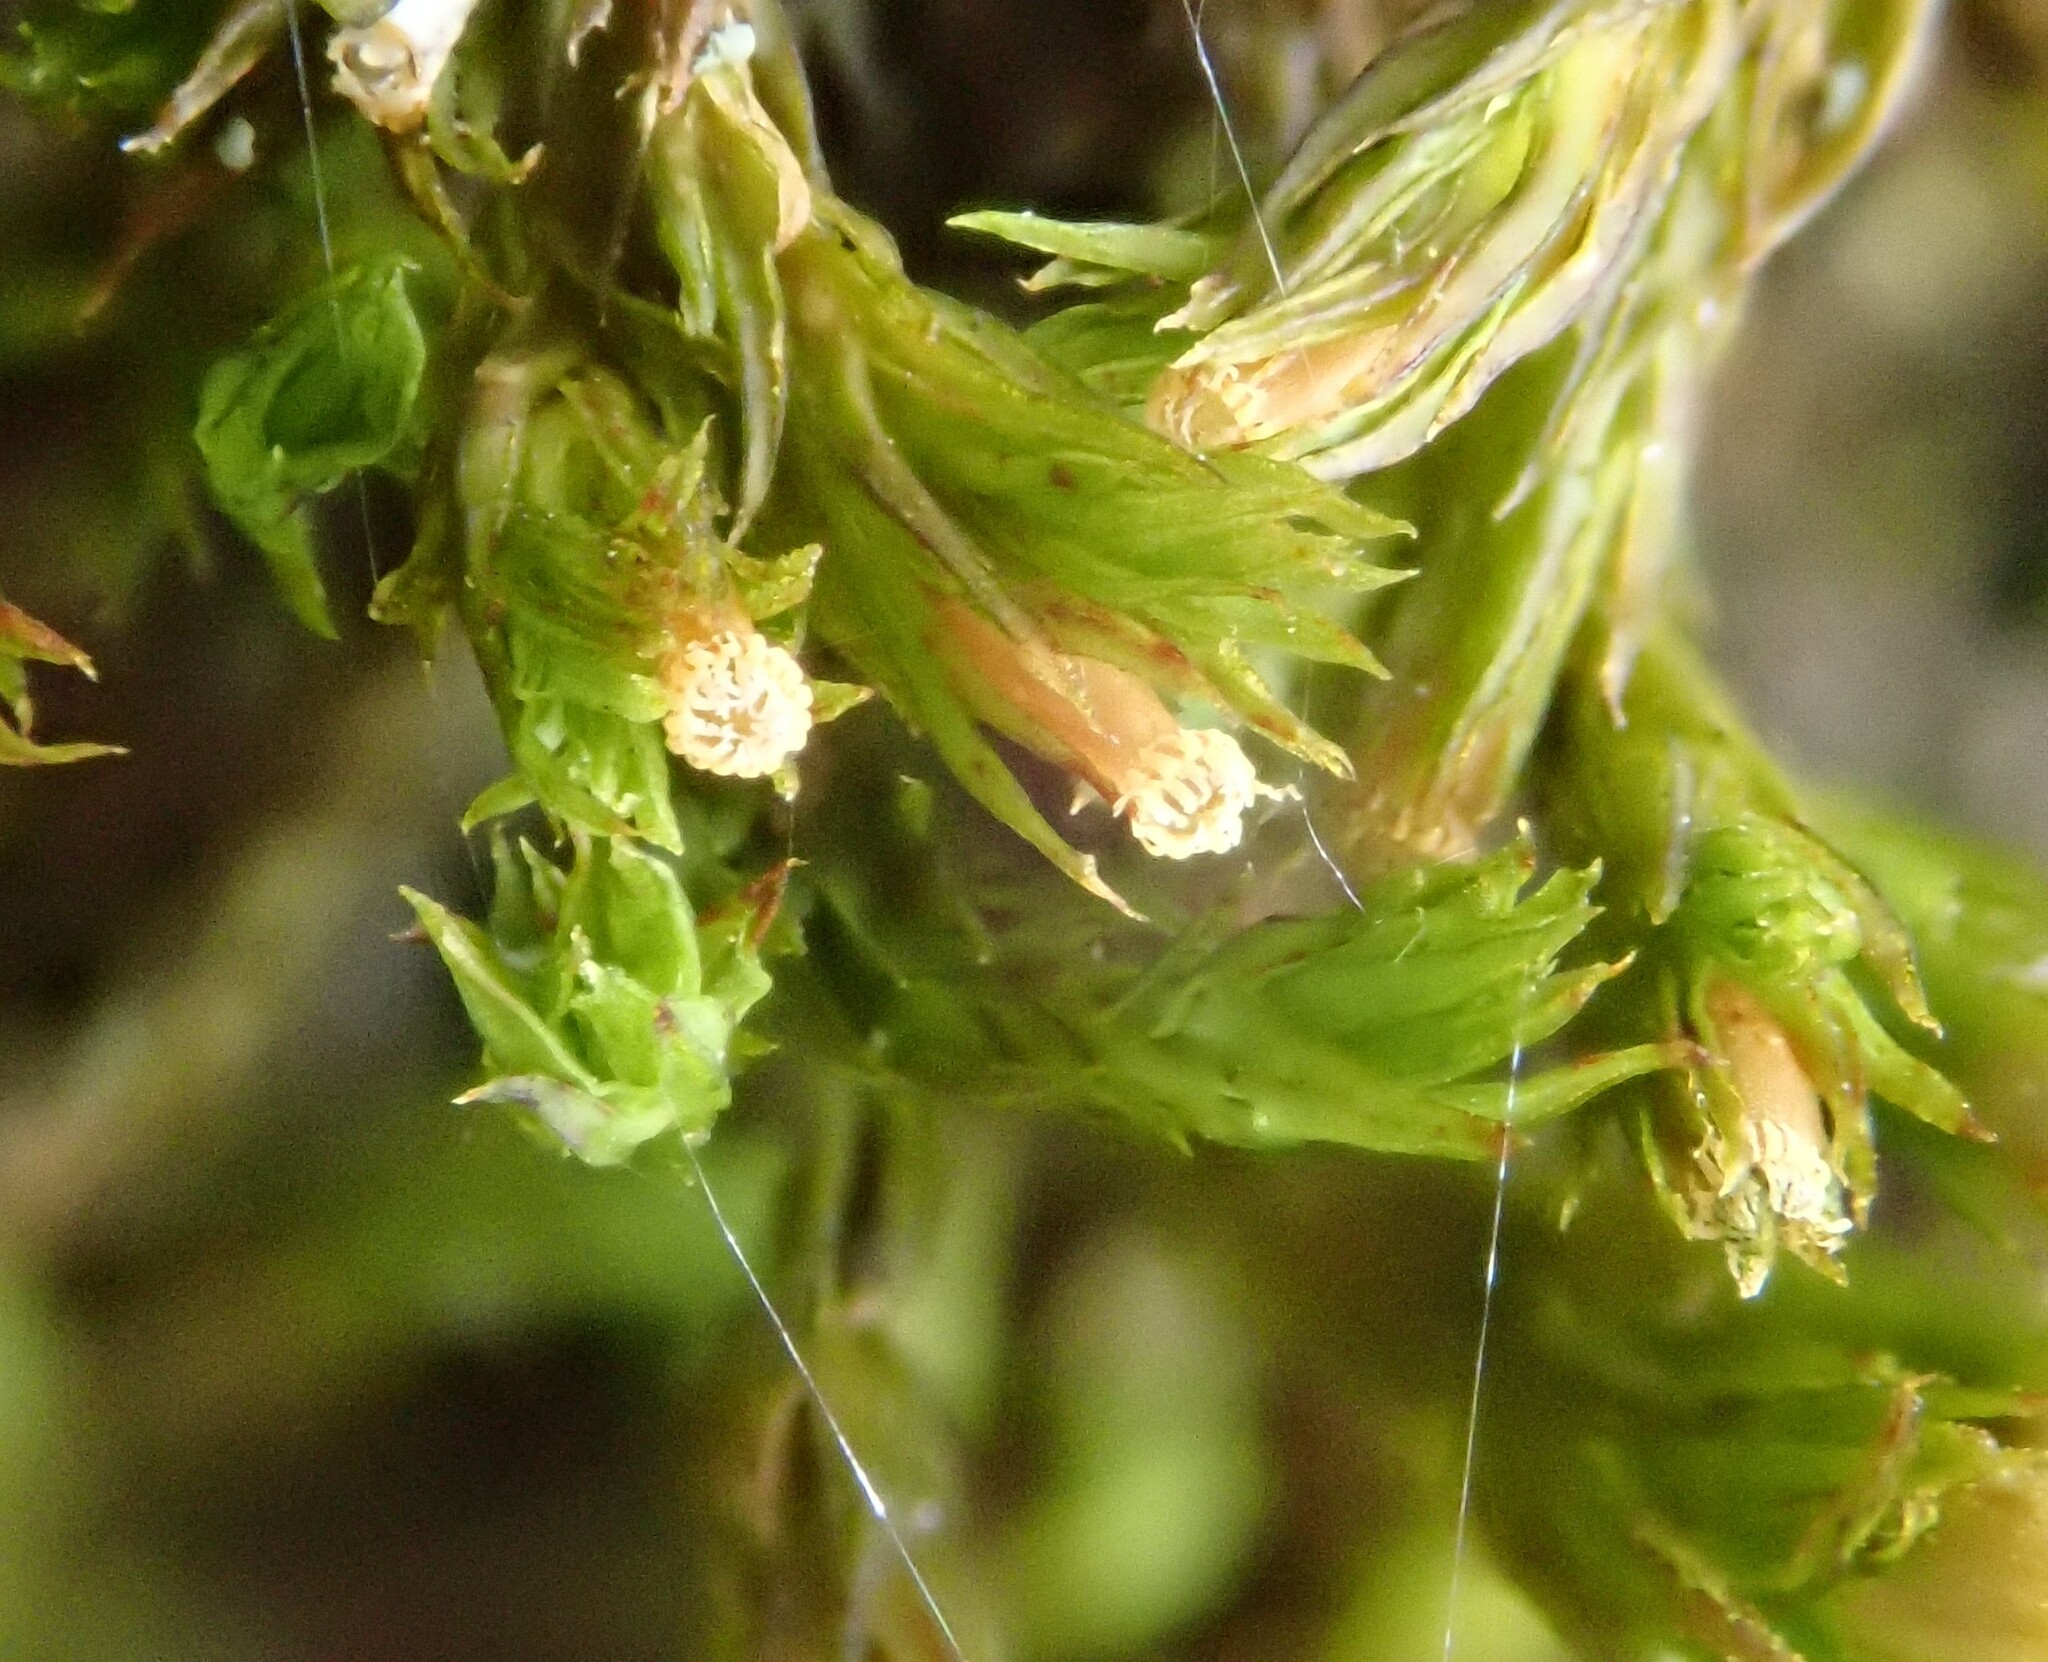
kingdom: Plantae
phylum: Bryophyta
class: Bryopsida
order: Orthotrichales
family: Orthotrichaceae
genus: Lewinskya
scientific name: Lewinskya striata
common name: Shaw's bristle-moss
